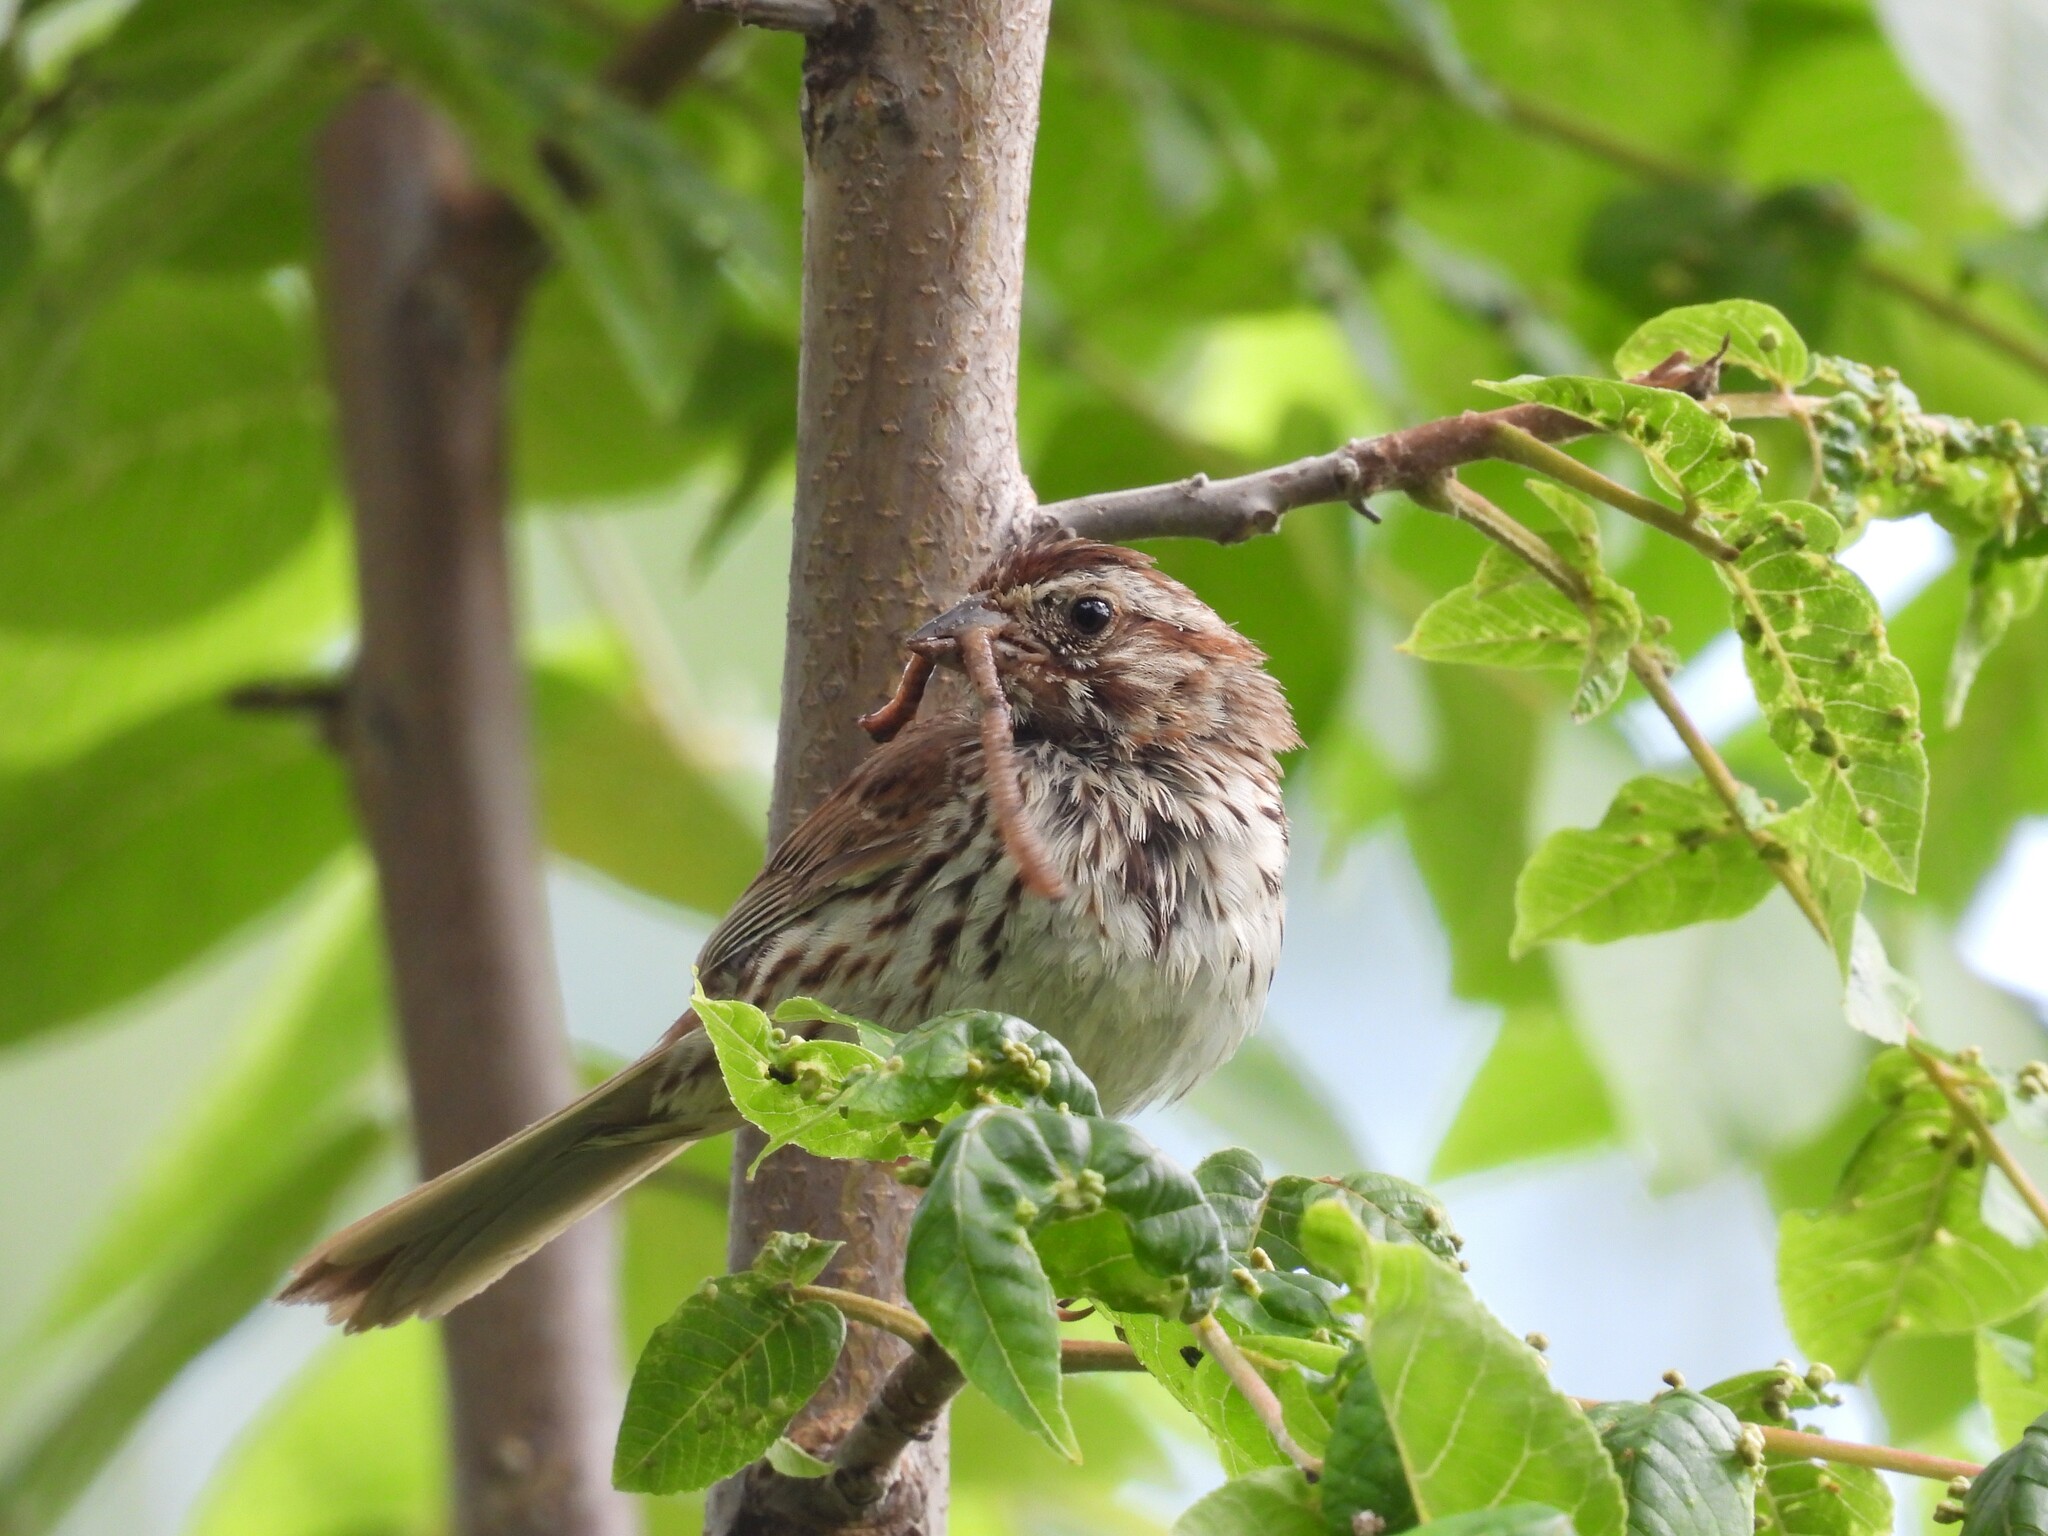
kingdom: Animalia
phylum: Chordata
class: Aves
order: Passeriformes
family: Passerellidae
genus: Melospiza
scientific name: Melospiza melodia
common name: Song sparrow
